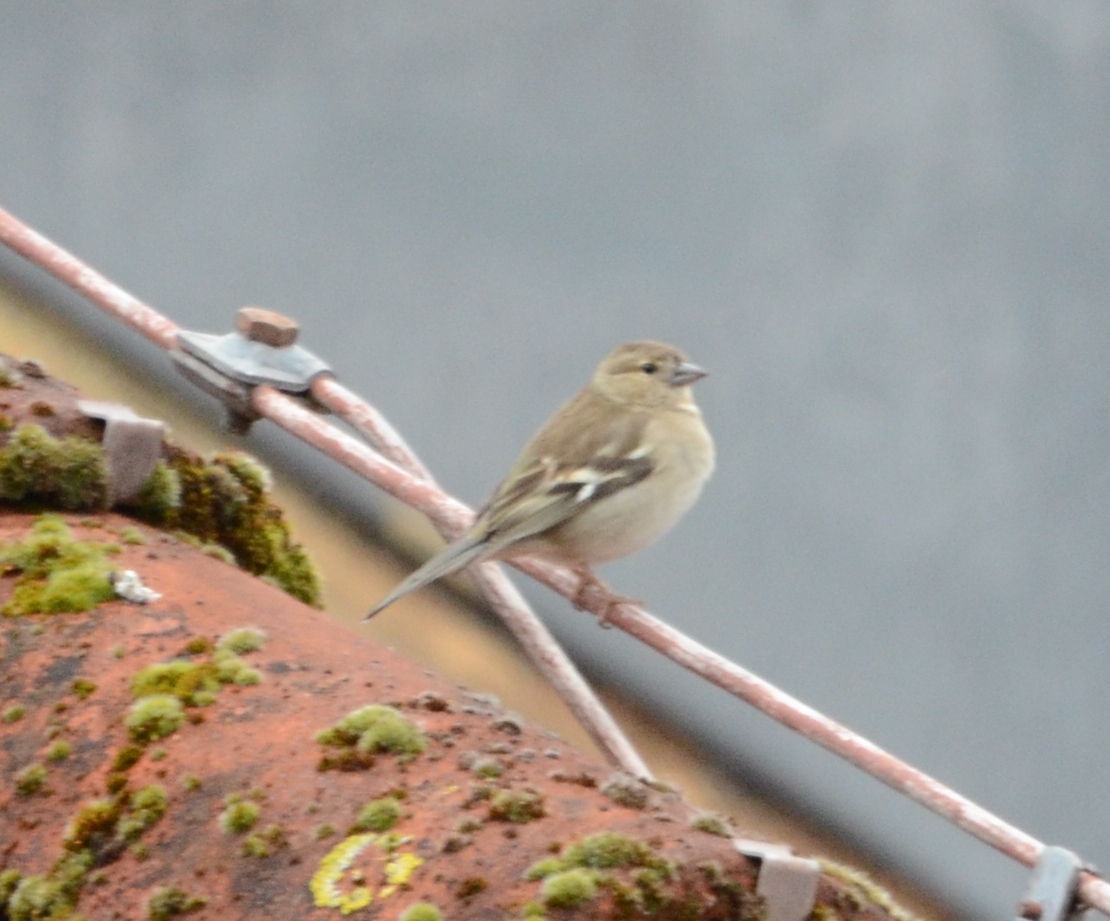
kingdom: Animalia
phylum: Chordata
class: Aves
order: Passeriformes
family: Fringillidae
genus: Fringilla
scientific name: Fringilla coelebs
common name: Common chaffinch
